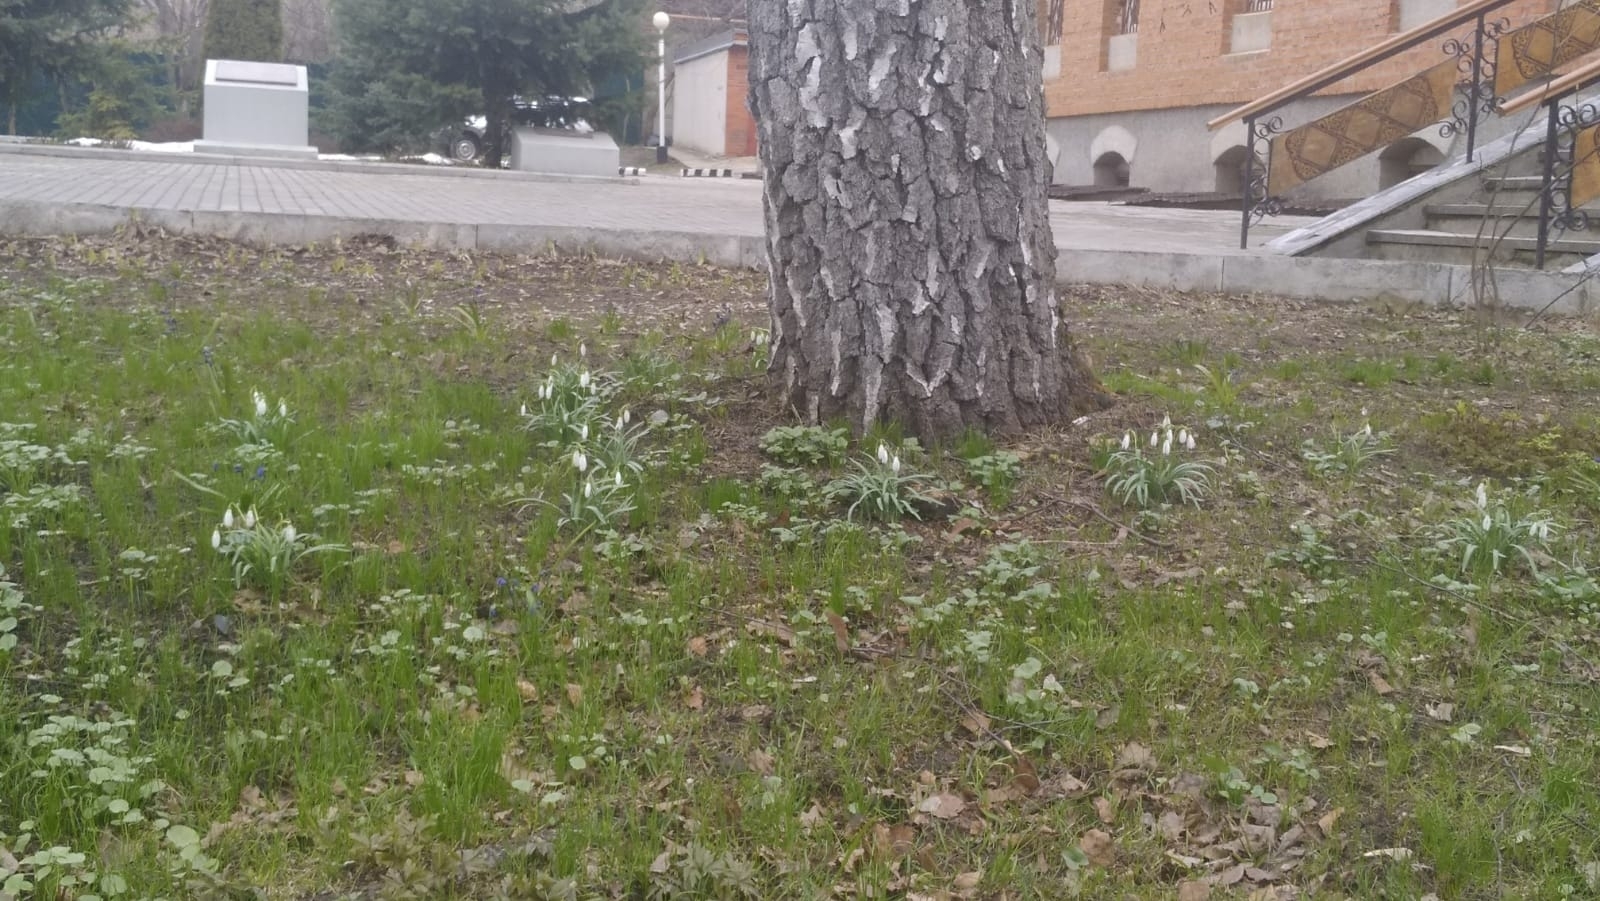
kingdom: Plantae
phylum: Tracheophyta
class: Liliopsida
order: Asparagales
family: Amaryllidaceae
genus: Galanthus
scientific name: Galanthus nivalis
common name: Snowdrop
